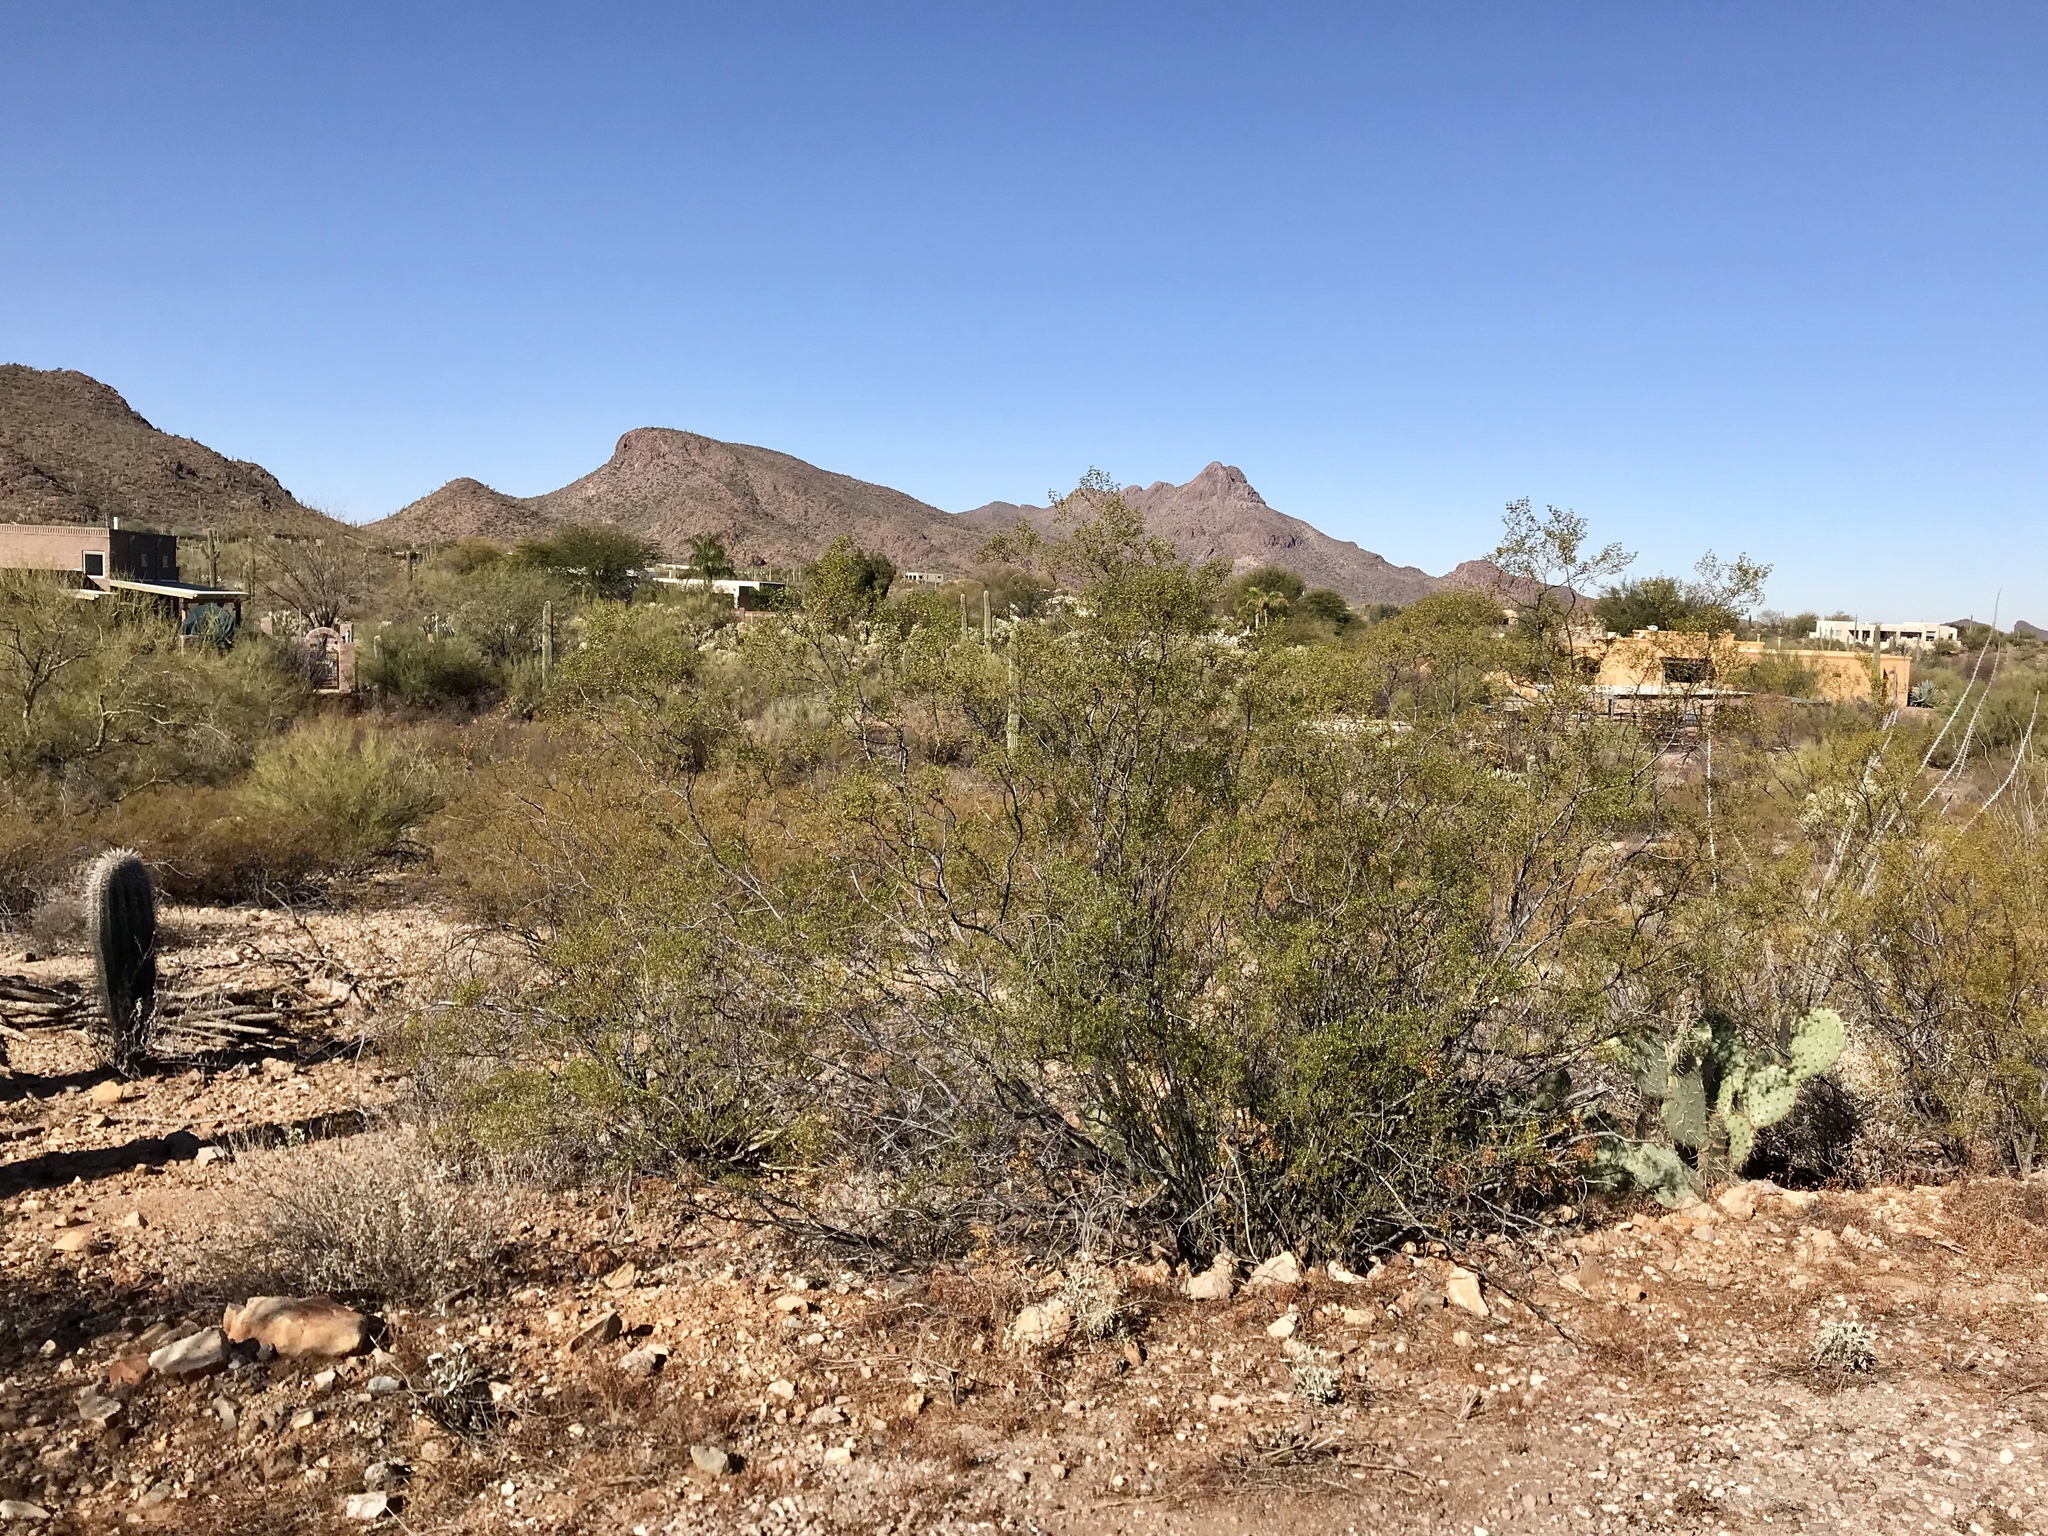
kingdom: Plantae
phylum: Tracheophyta
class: Magnoliopsida
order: Zygophyllales
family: Zygophyllaceae
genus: Larrea
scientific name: Larrea tridentata
